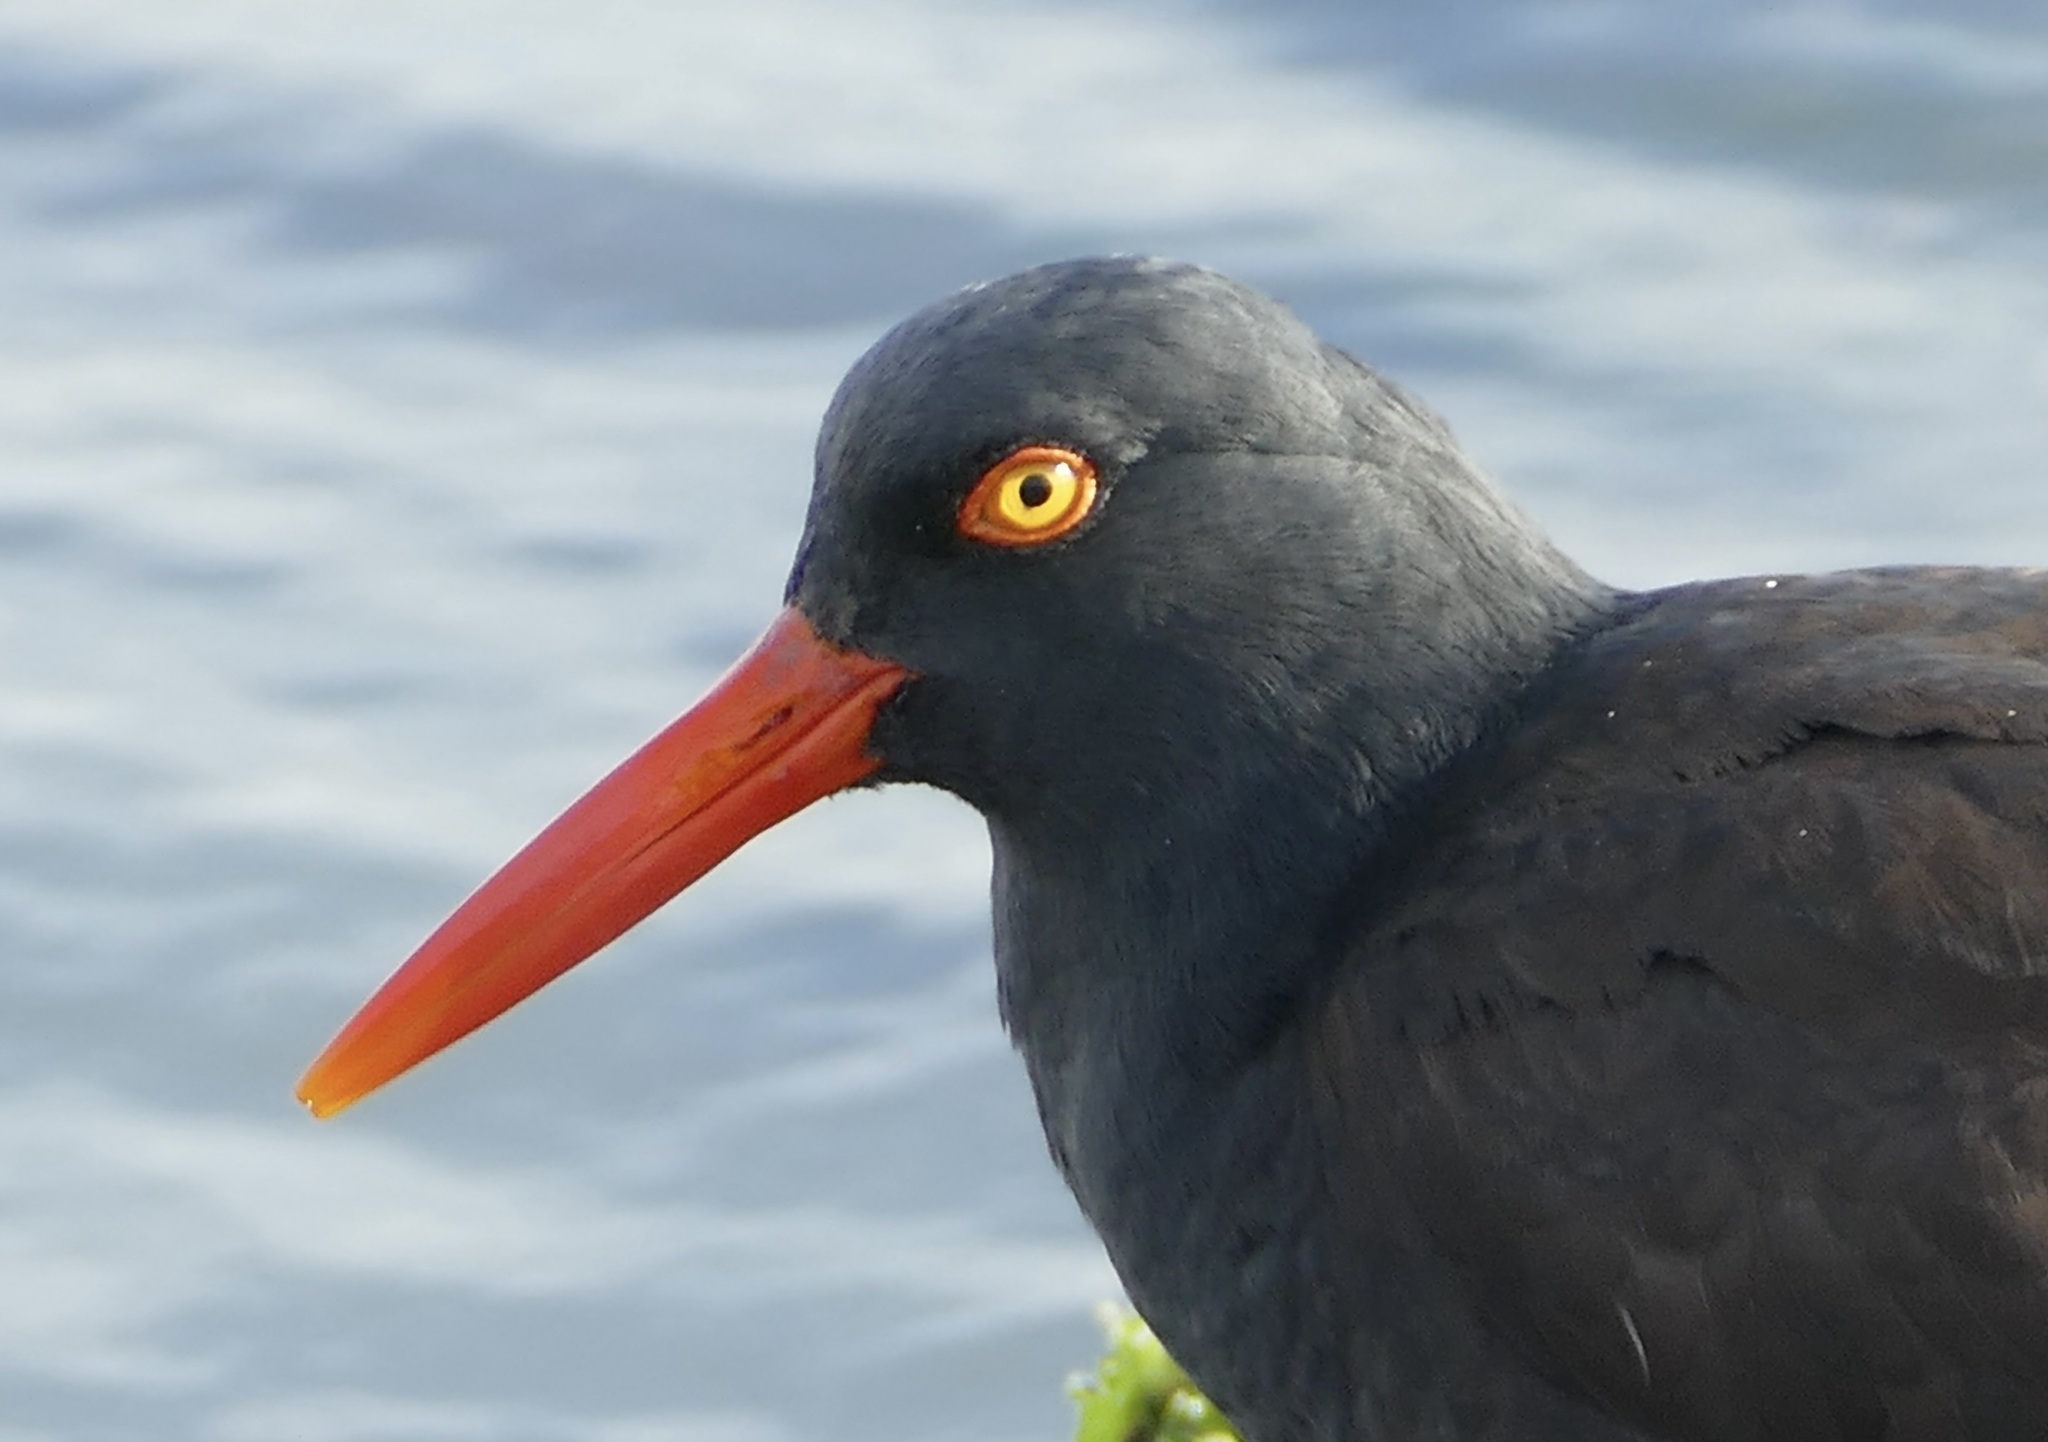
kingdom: Animalia
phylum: Chordata
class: Aves
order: Charadriiformes
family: Haematopodidae
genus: Haematopus
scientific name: Haematopus bachmani
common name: Black oystercatcher
